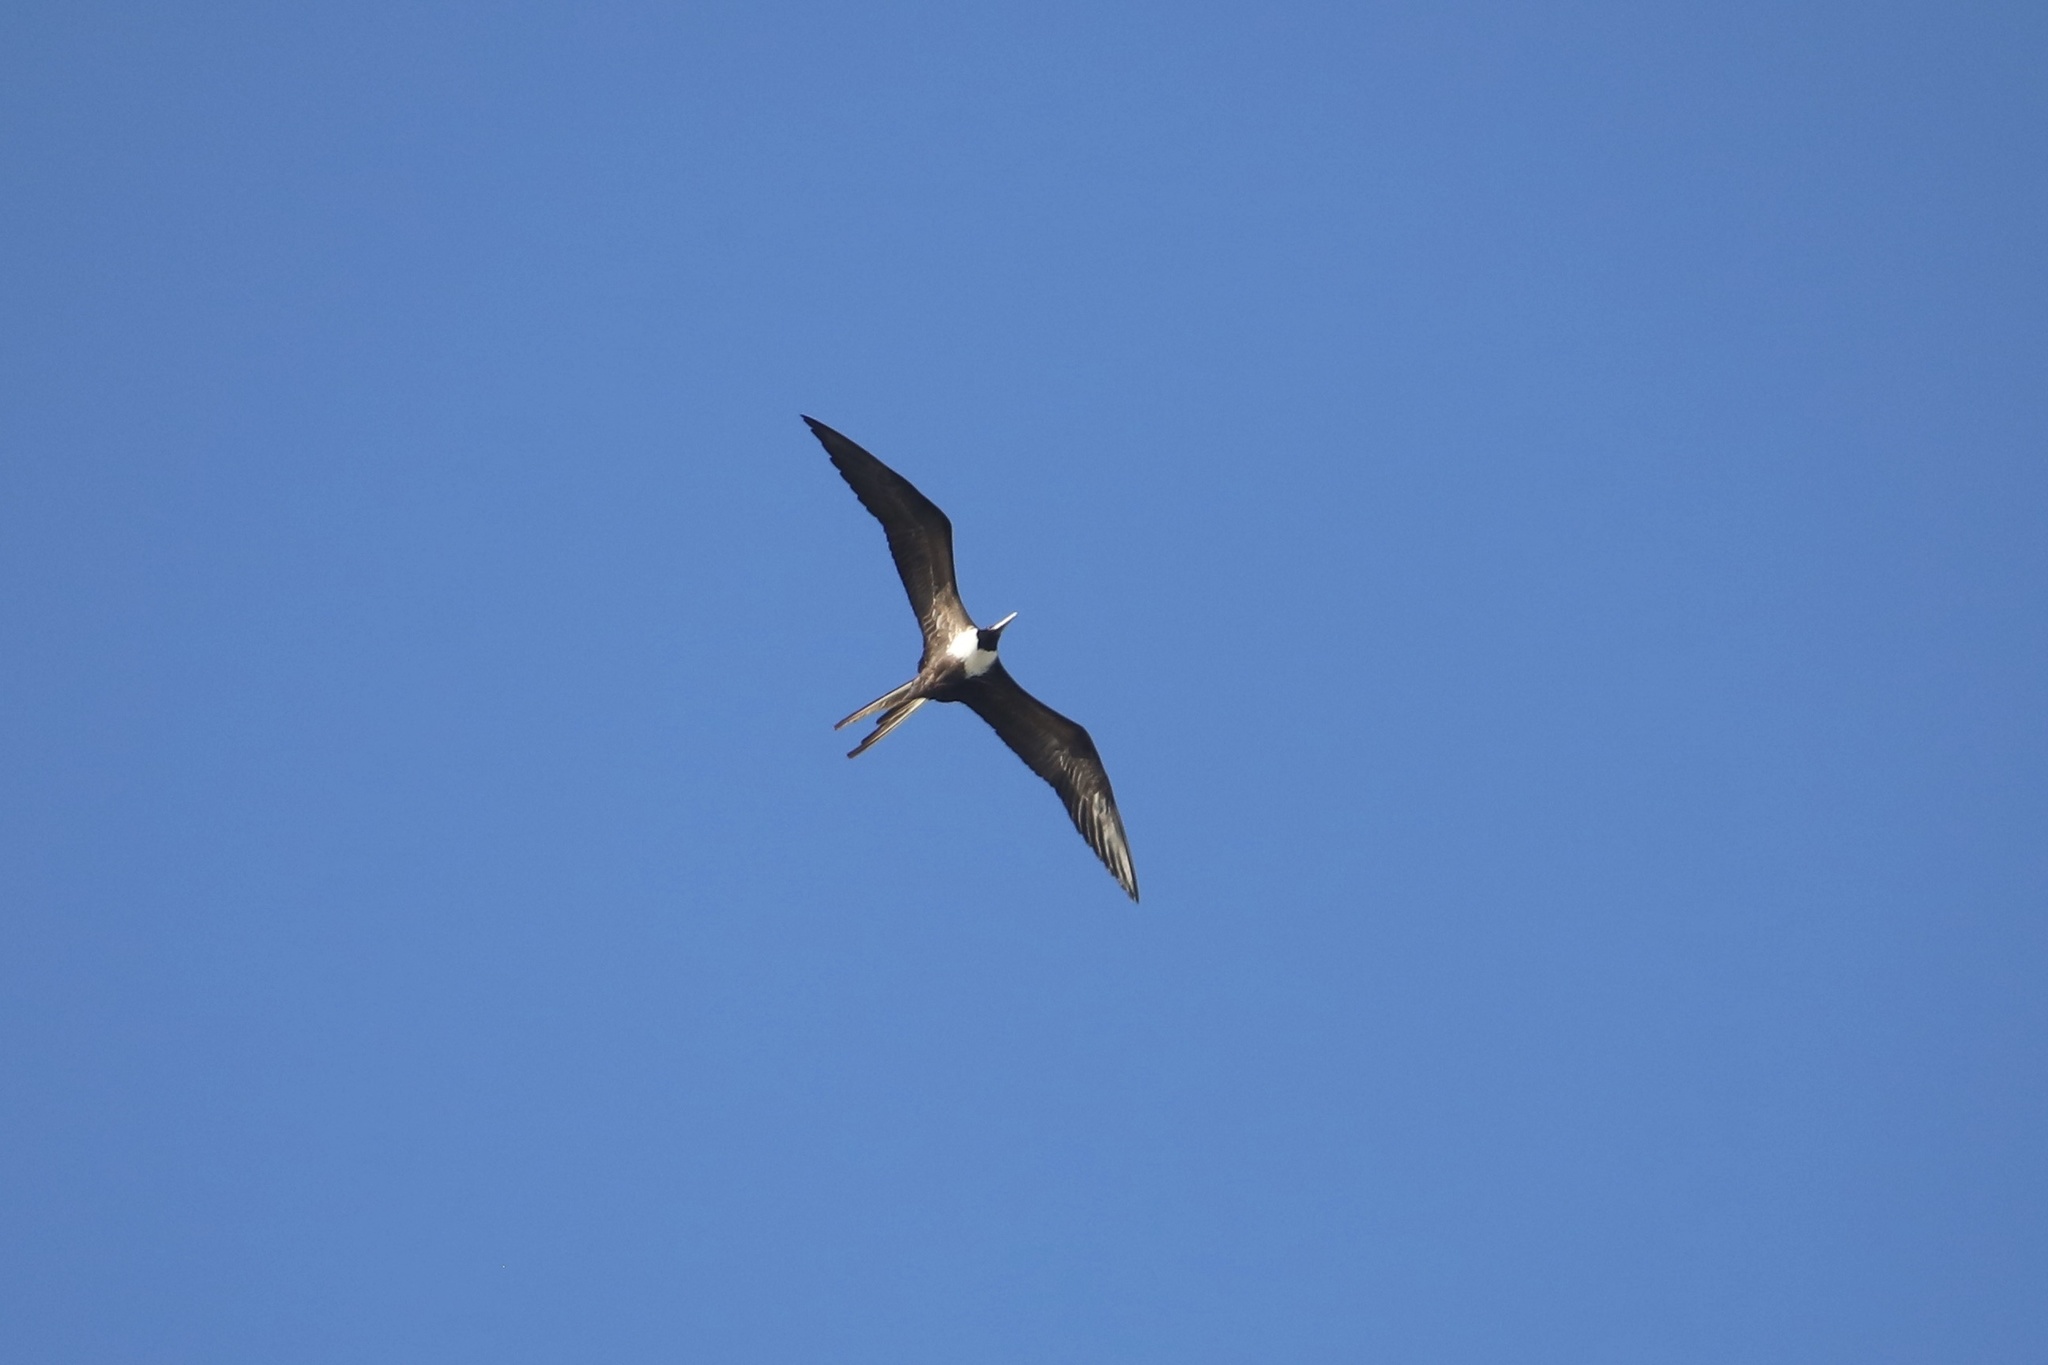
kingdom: Animalia
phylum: Chordata
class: Aves
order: Suliformes
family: Fregatidae
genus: Fregata
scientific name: Fregata magnificens
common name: Magnificent frigatebird
